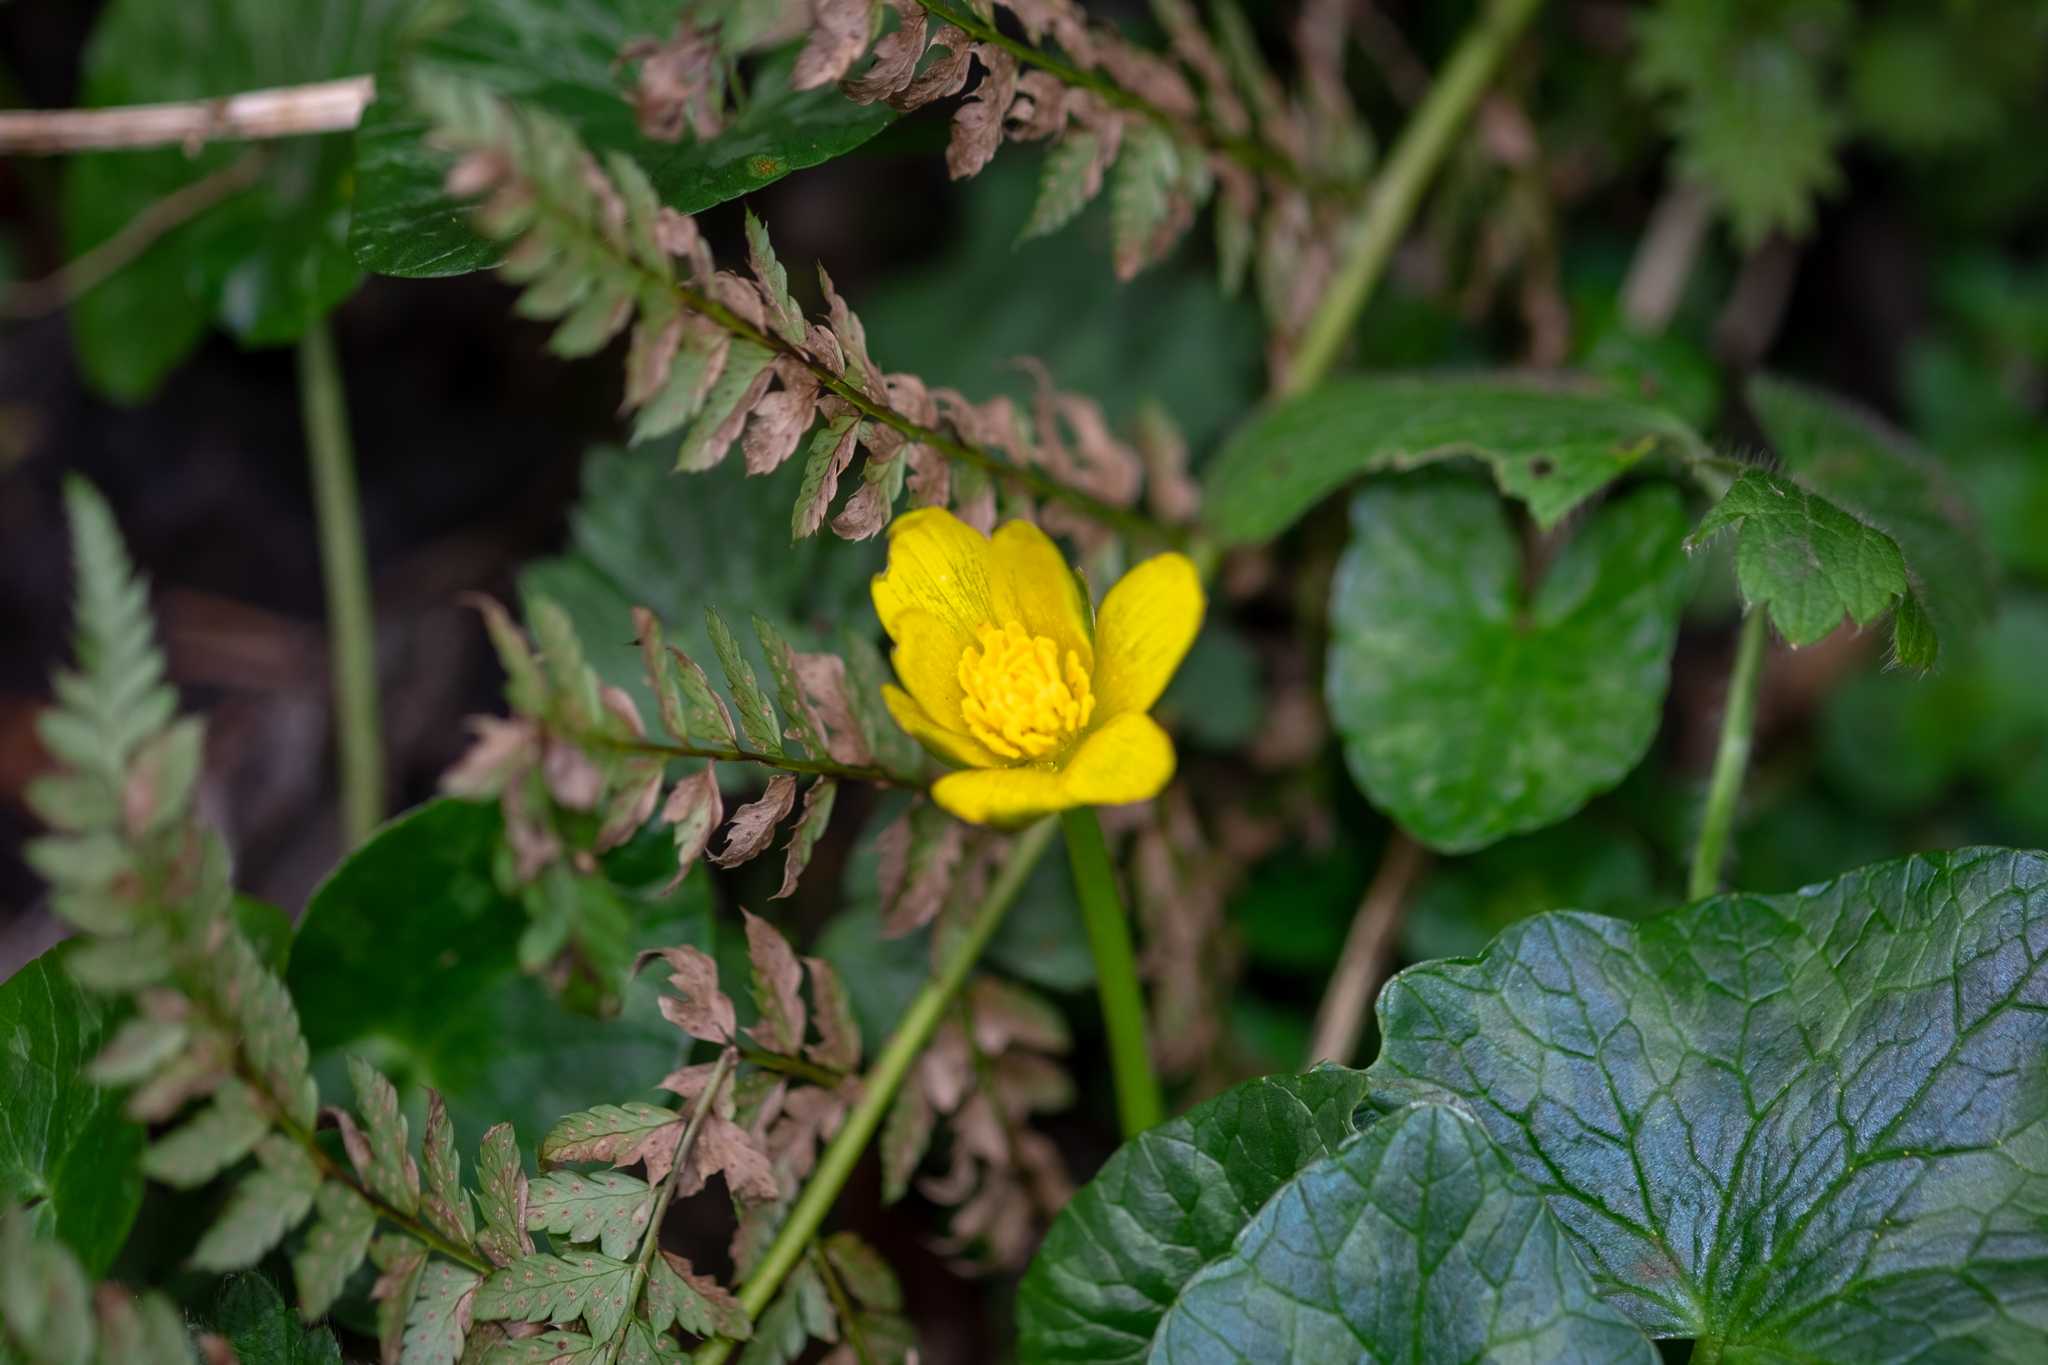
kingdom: Plantae
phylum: Tracheophyta
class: Magnoliopsida
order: Ranunculales
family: Ranunculaceae
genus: Ficaria
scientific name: Ficaria verna
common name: Lesser celandine
